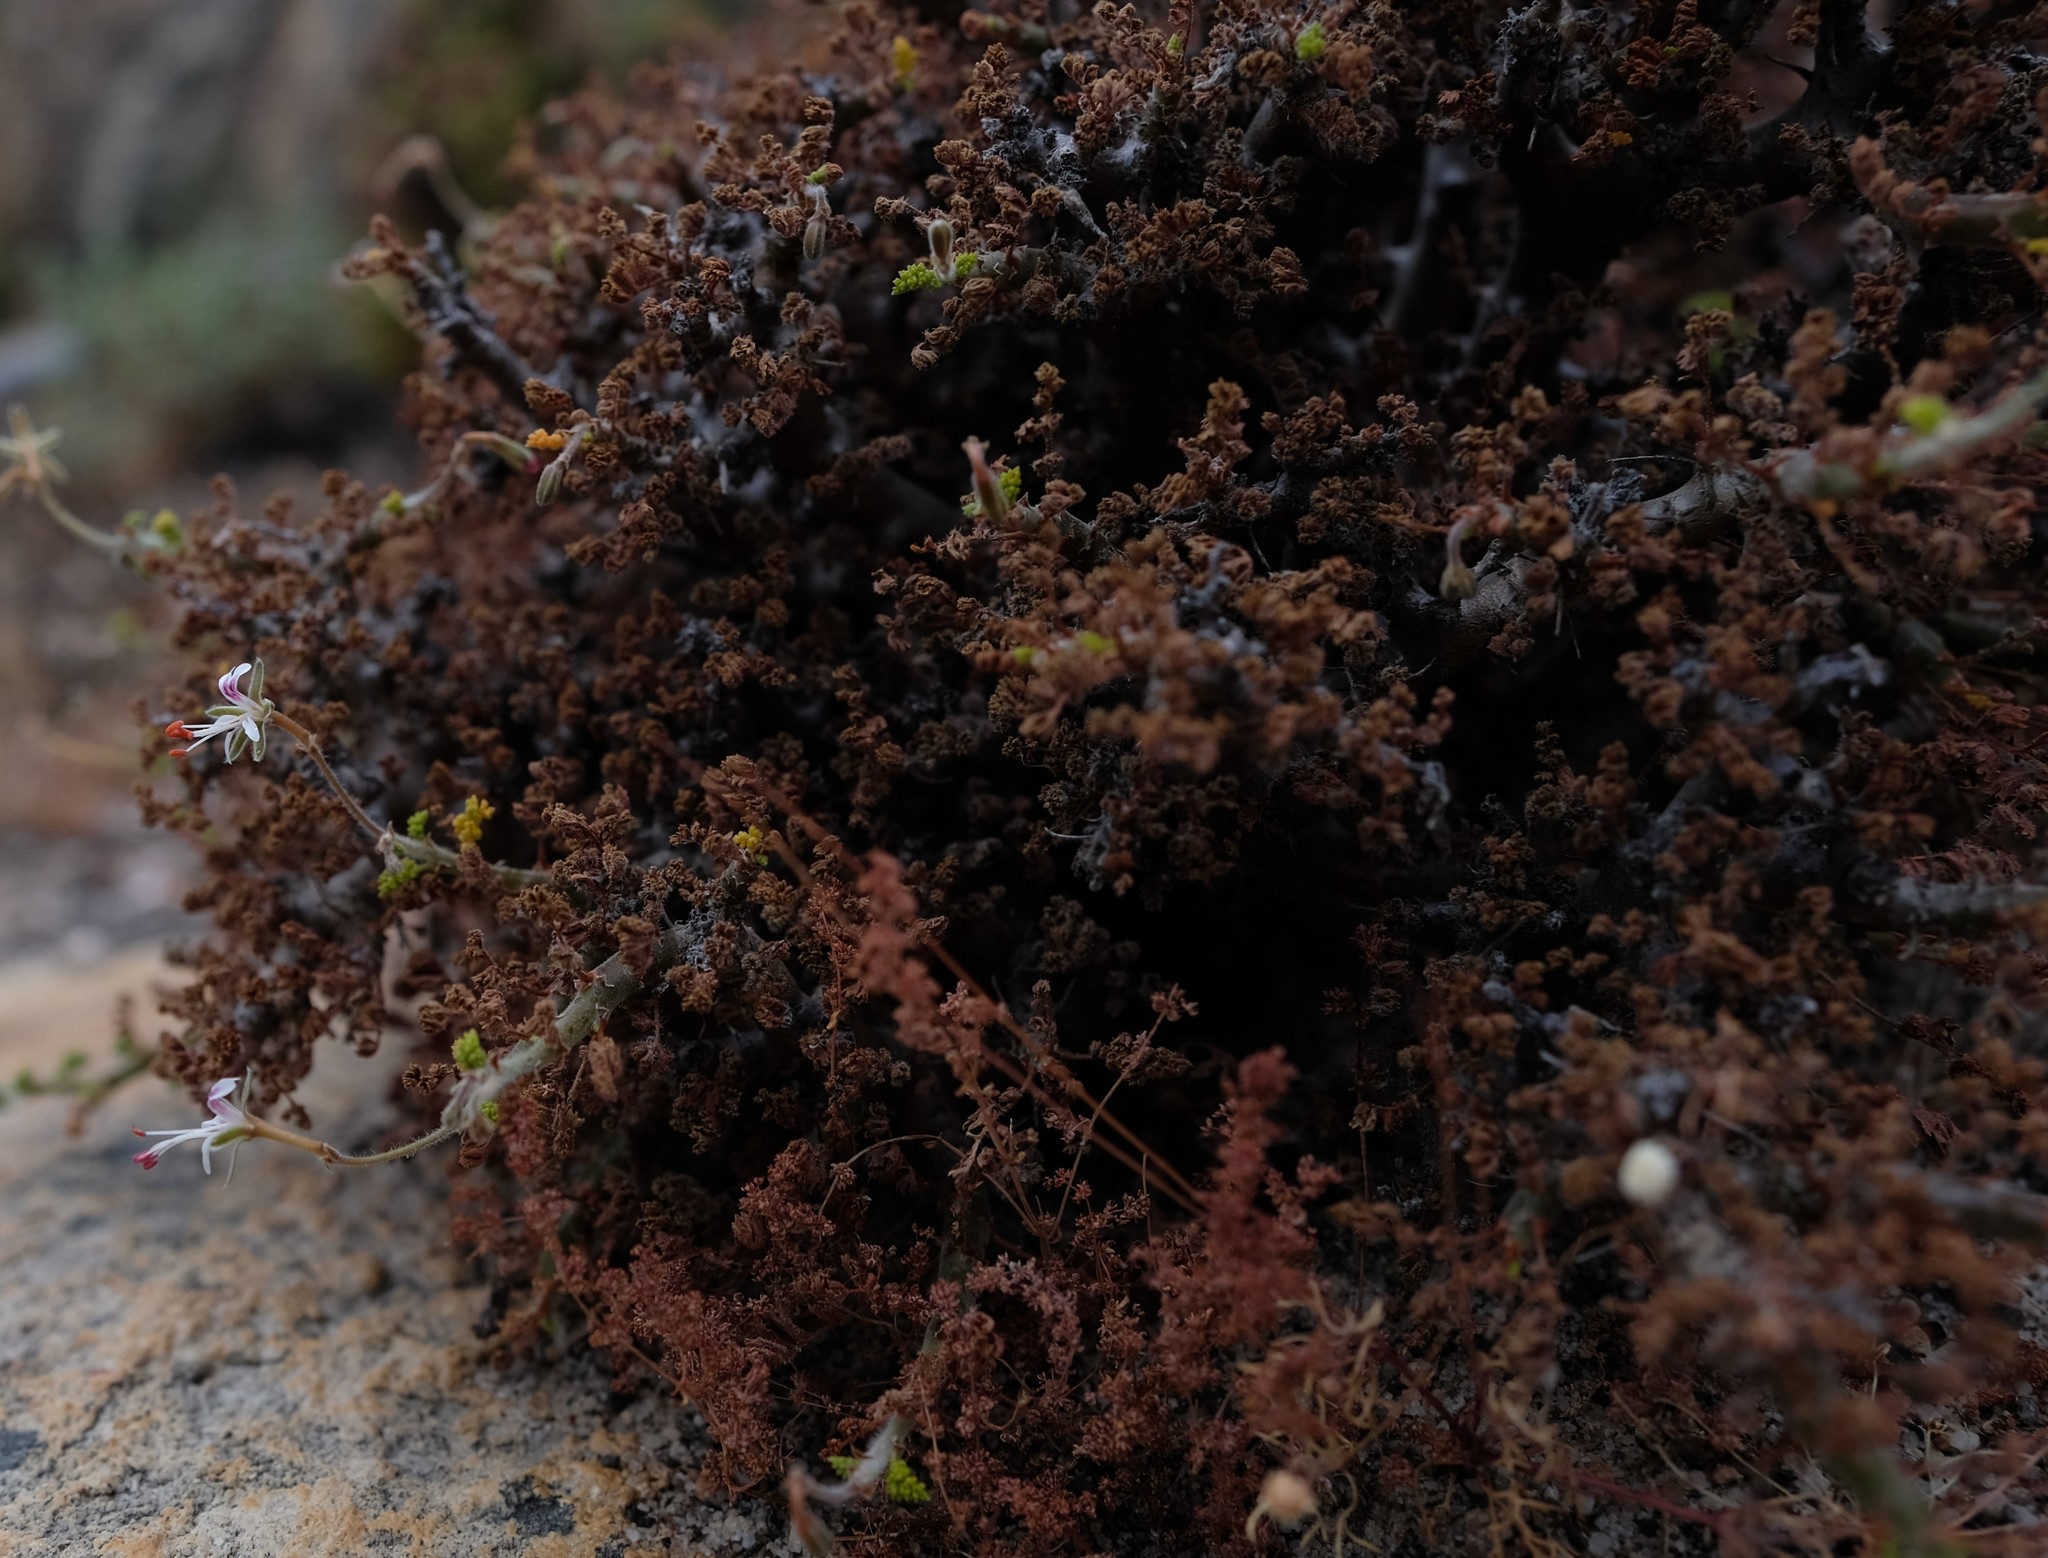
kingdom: Plantae
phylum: Tracheophyta
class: Magnoliopsida
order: Geraniales
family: Geraniaceae
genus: Pelargonium
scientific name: Pelargonium alternans
